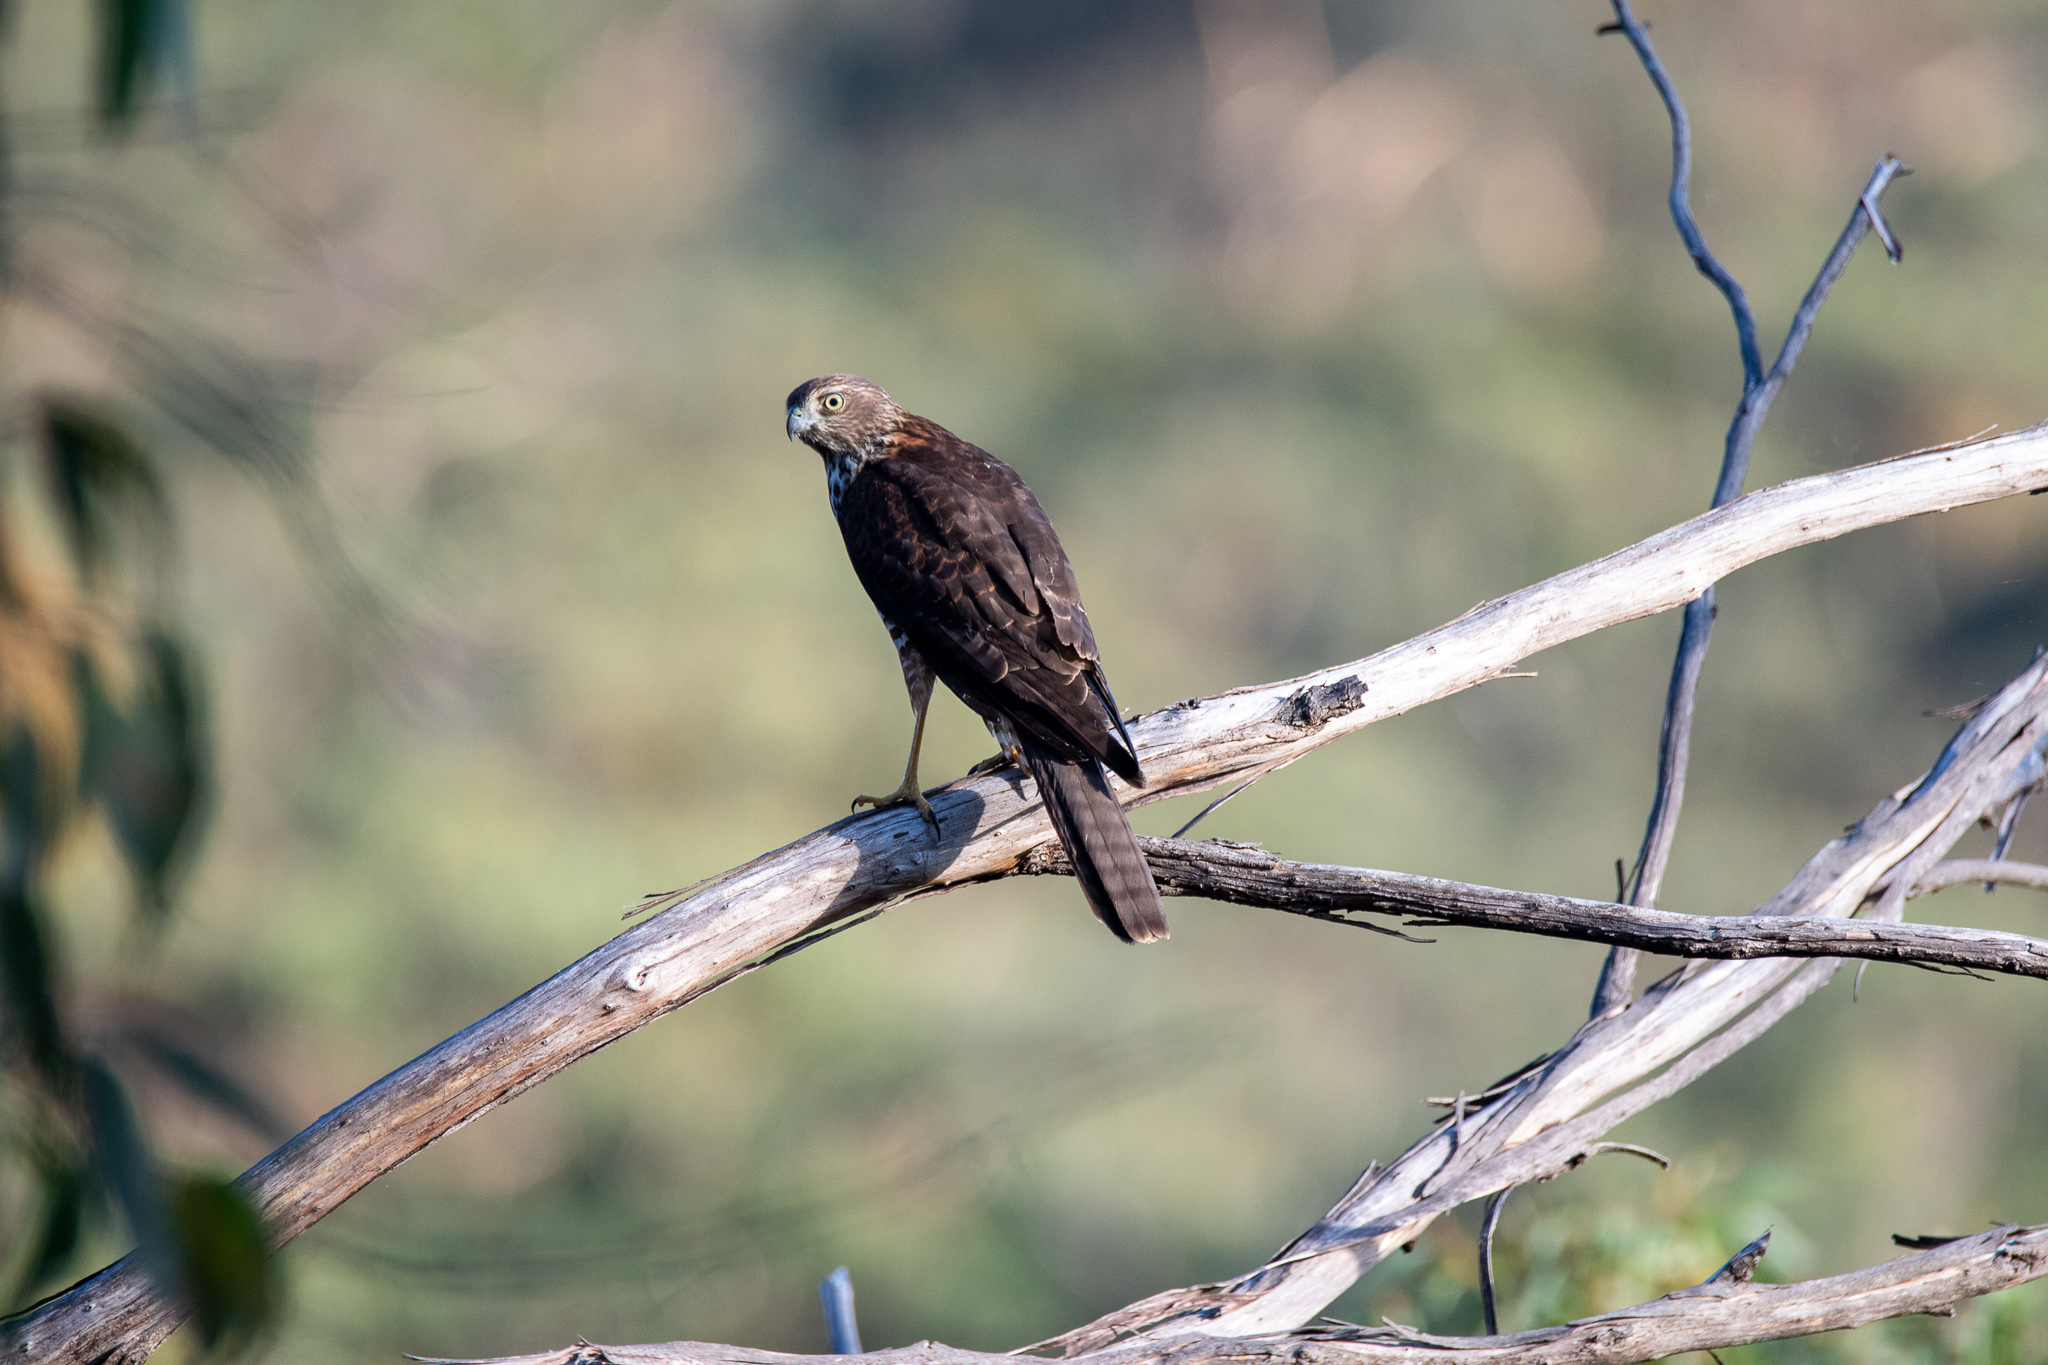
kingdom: Animalia
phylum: Chordata
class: Aves
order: Accipitriformes
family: Accipitridae
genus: Accipiter
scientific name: Accipiter fasciatus
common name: Brown goshawk
